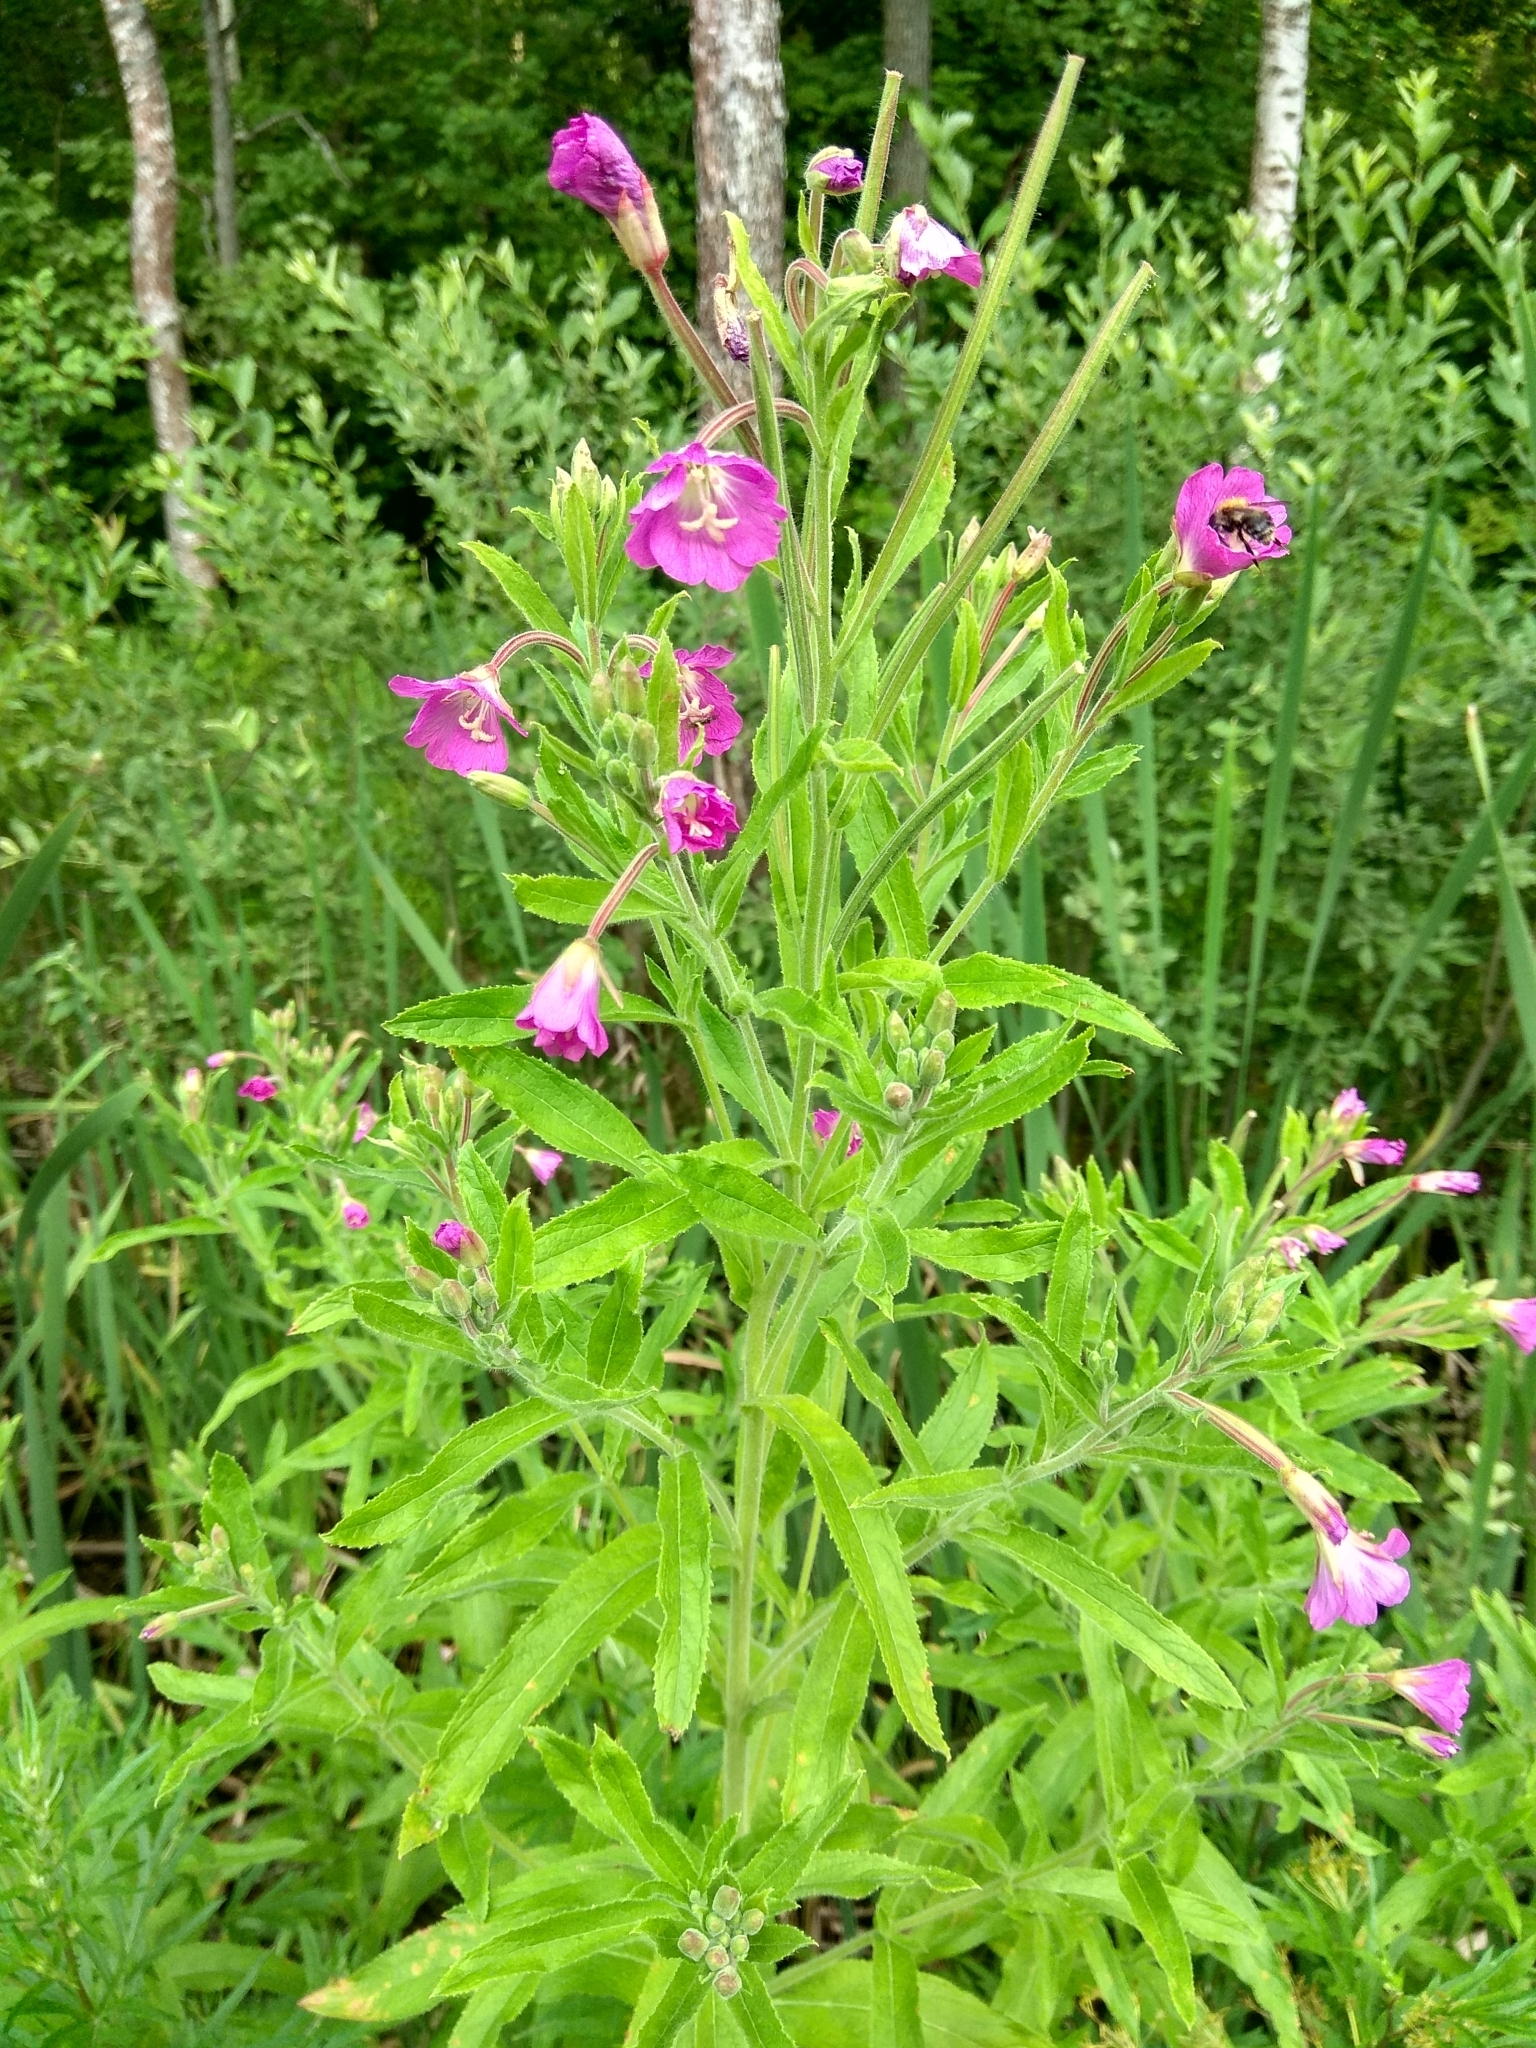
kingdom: Plantae
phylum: Tracheophyta
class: Magnoliopsida
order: Myrtales
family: Onagraceae
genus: Epilobium
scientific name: Epilobium hirsutum
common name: Great willowherb
